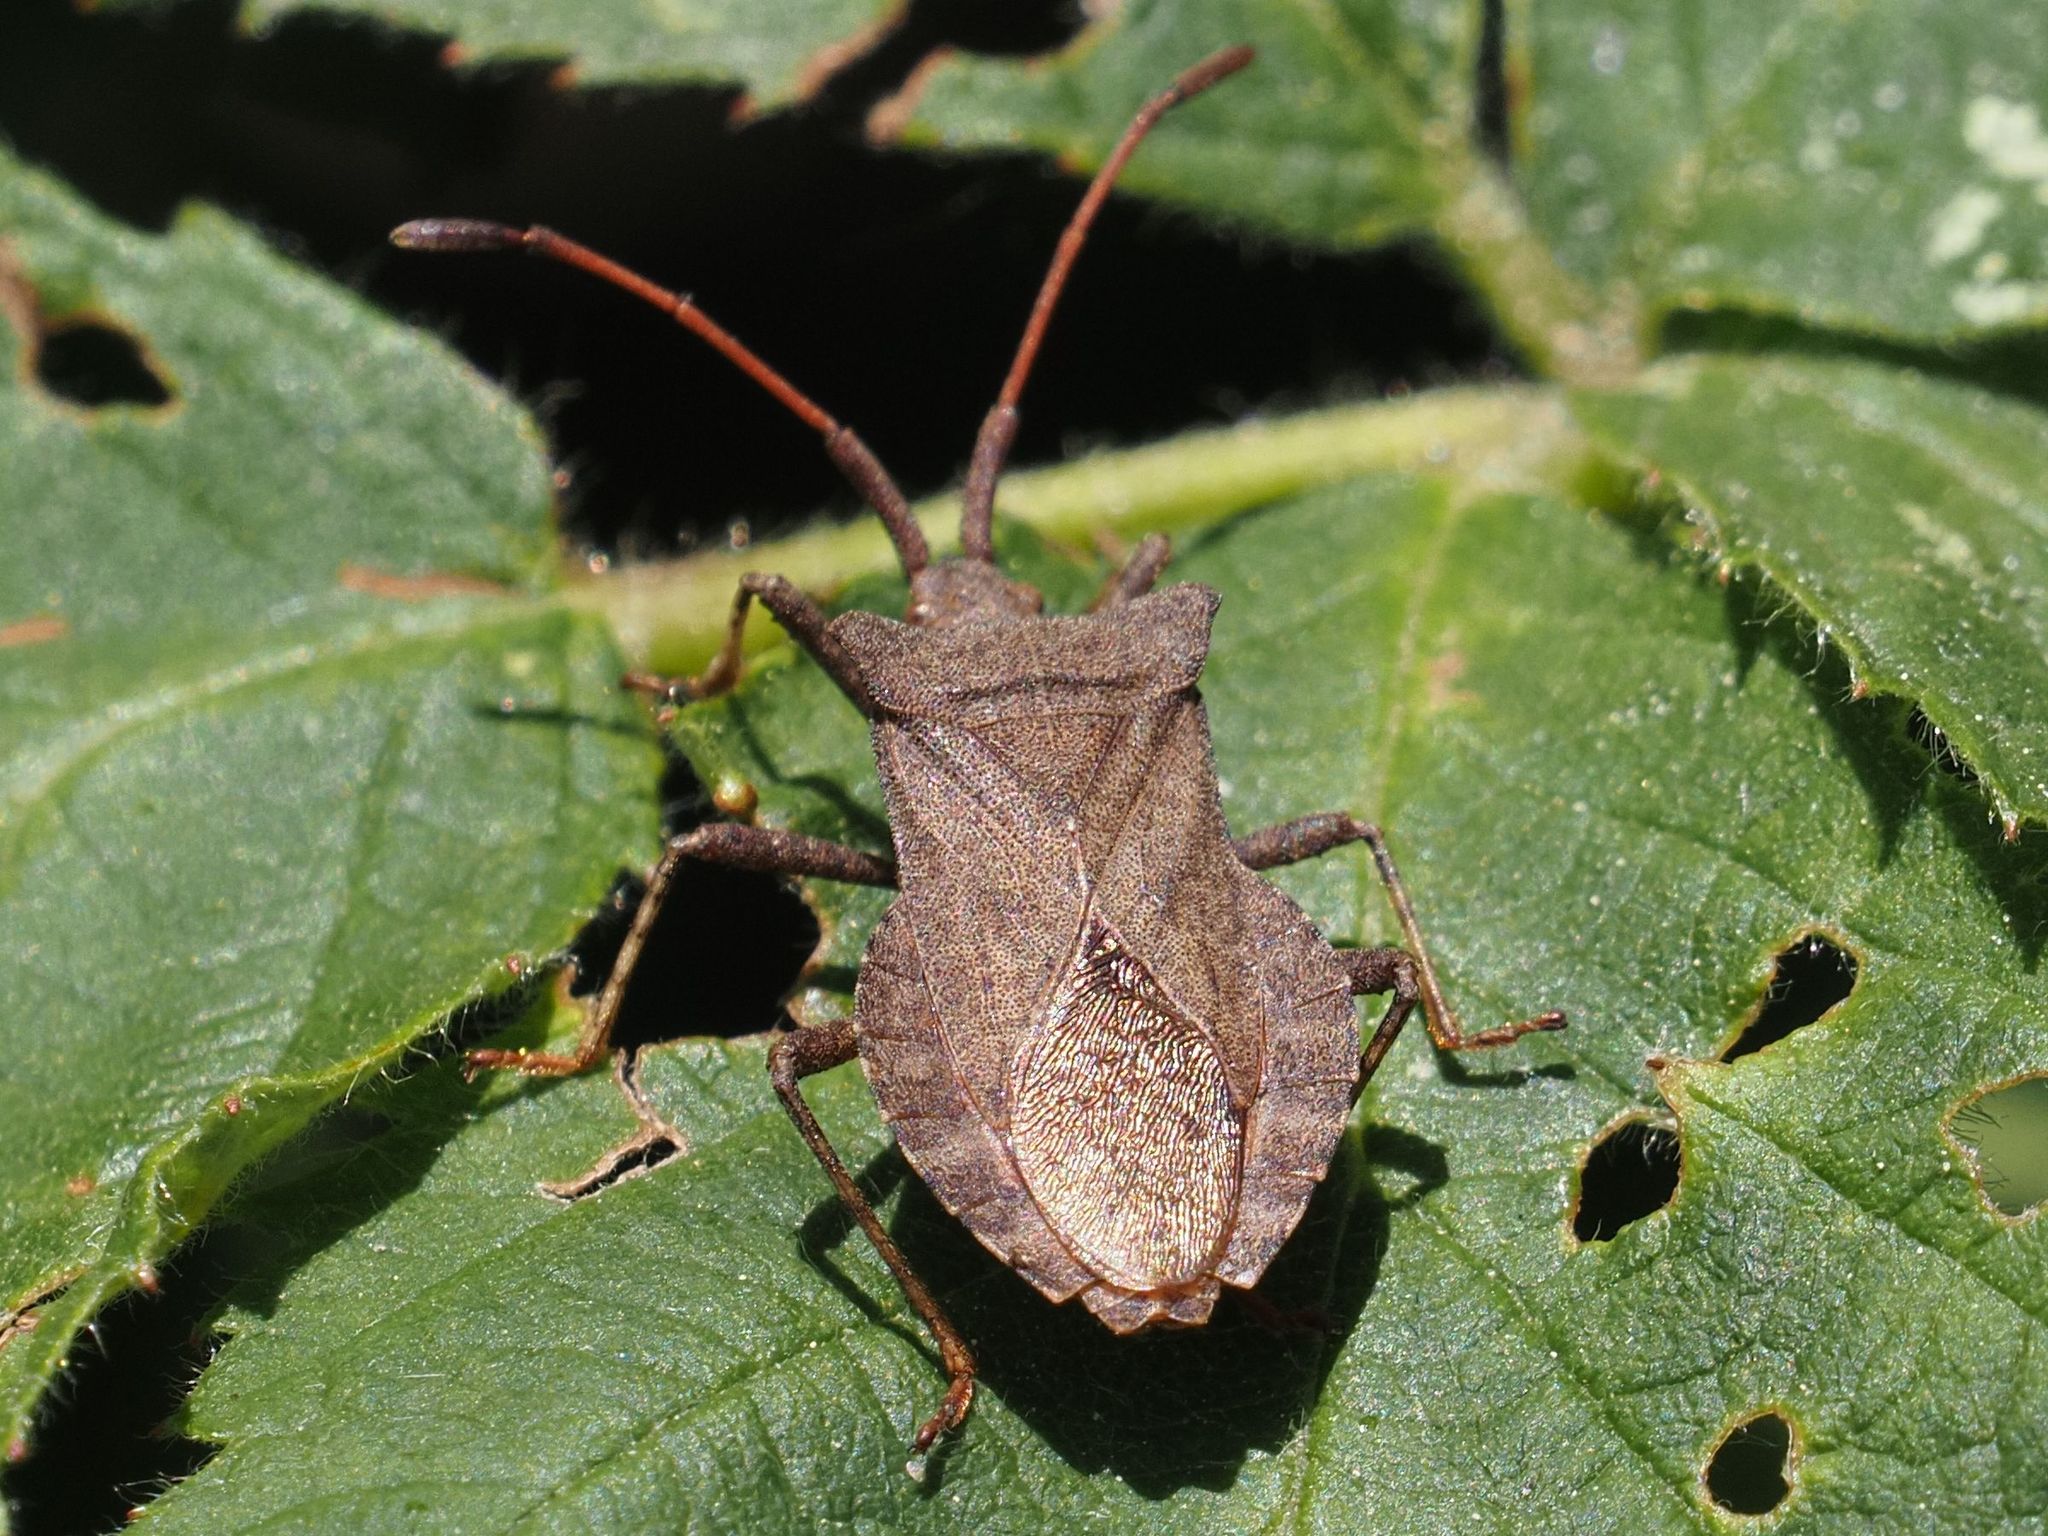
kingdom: Animalia
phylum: Arthropoda
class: Insecta
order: Hemiptera
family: Coreidae
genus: Coreus
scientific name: Coreus marginatus
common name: Dock bug
